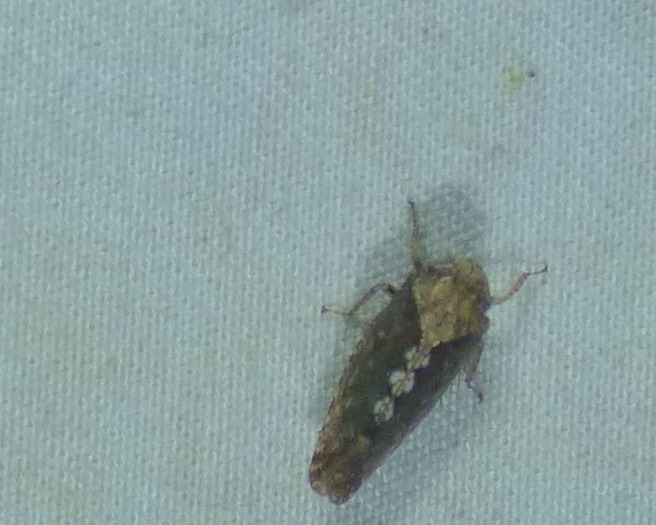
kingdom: Animalia
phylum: Arthropoda
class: Insecta
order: Hemiptera
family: Cicadellidae
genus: Excultanus
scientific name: Excultanus excultus
